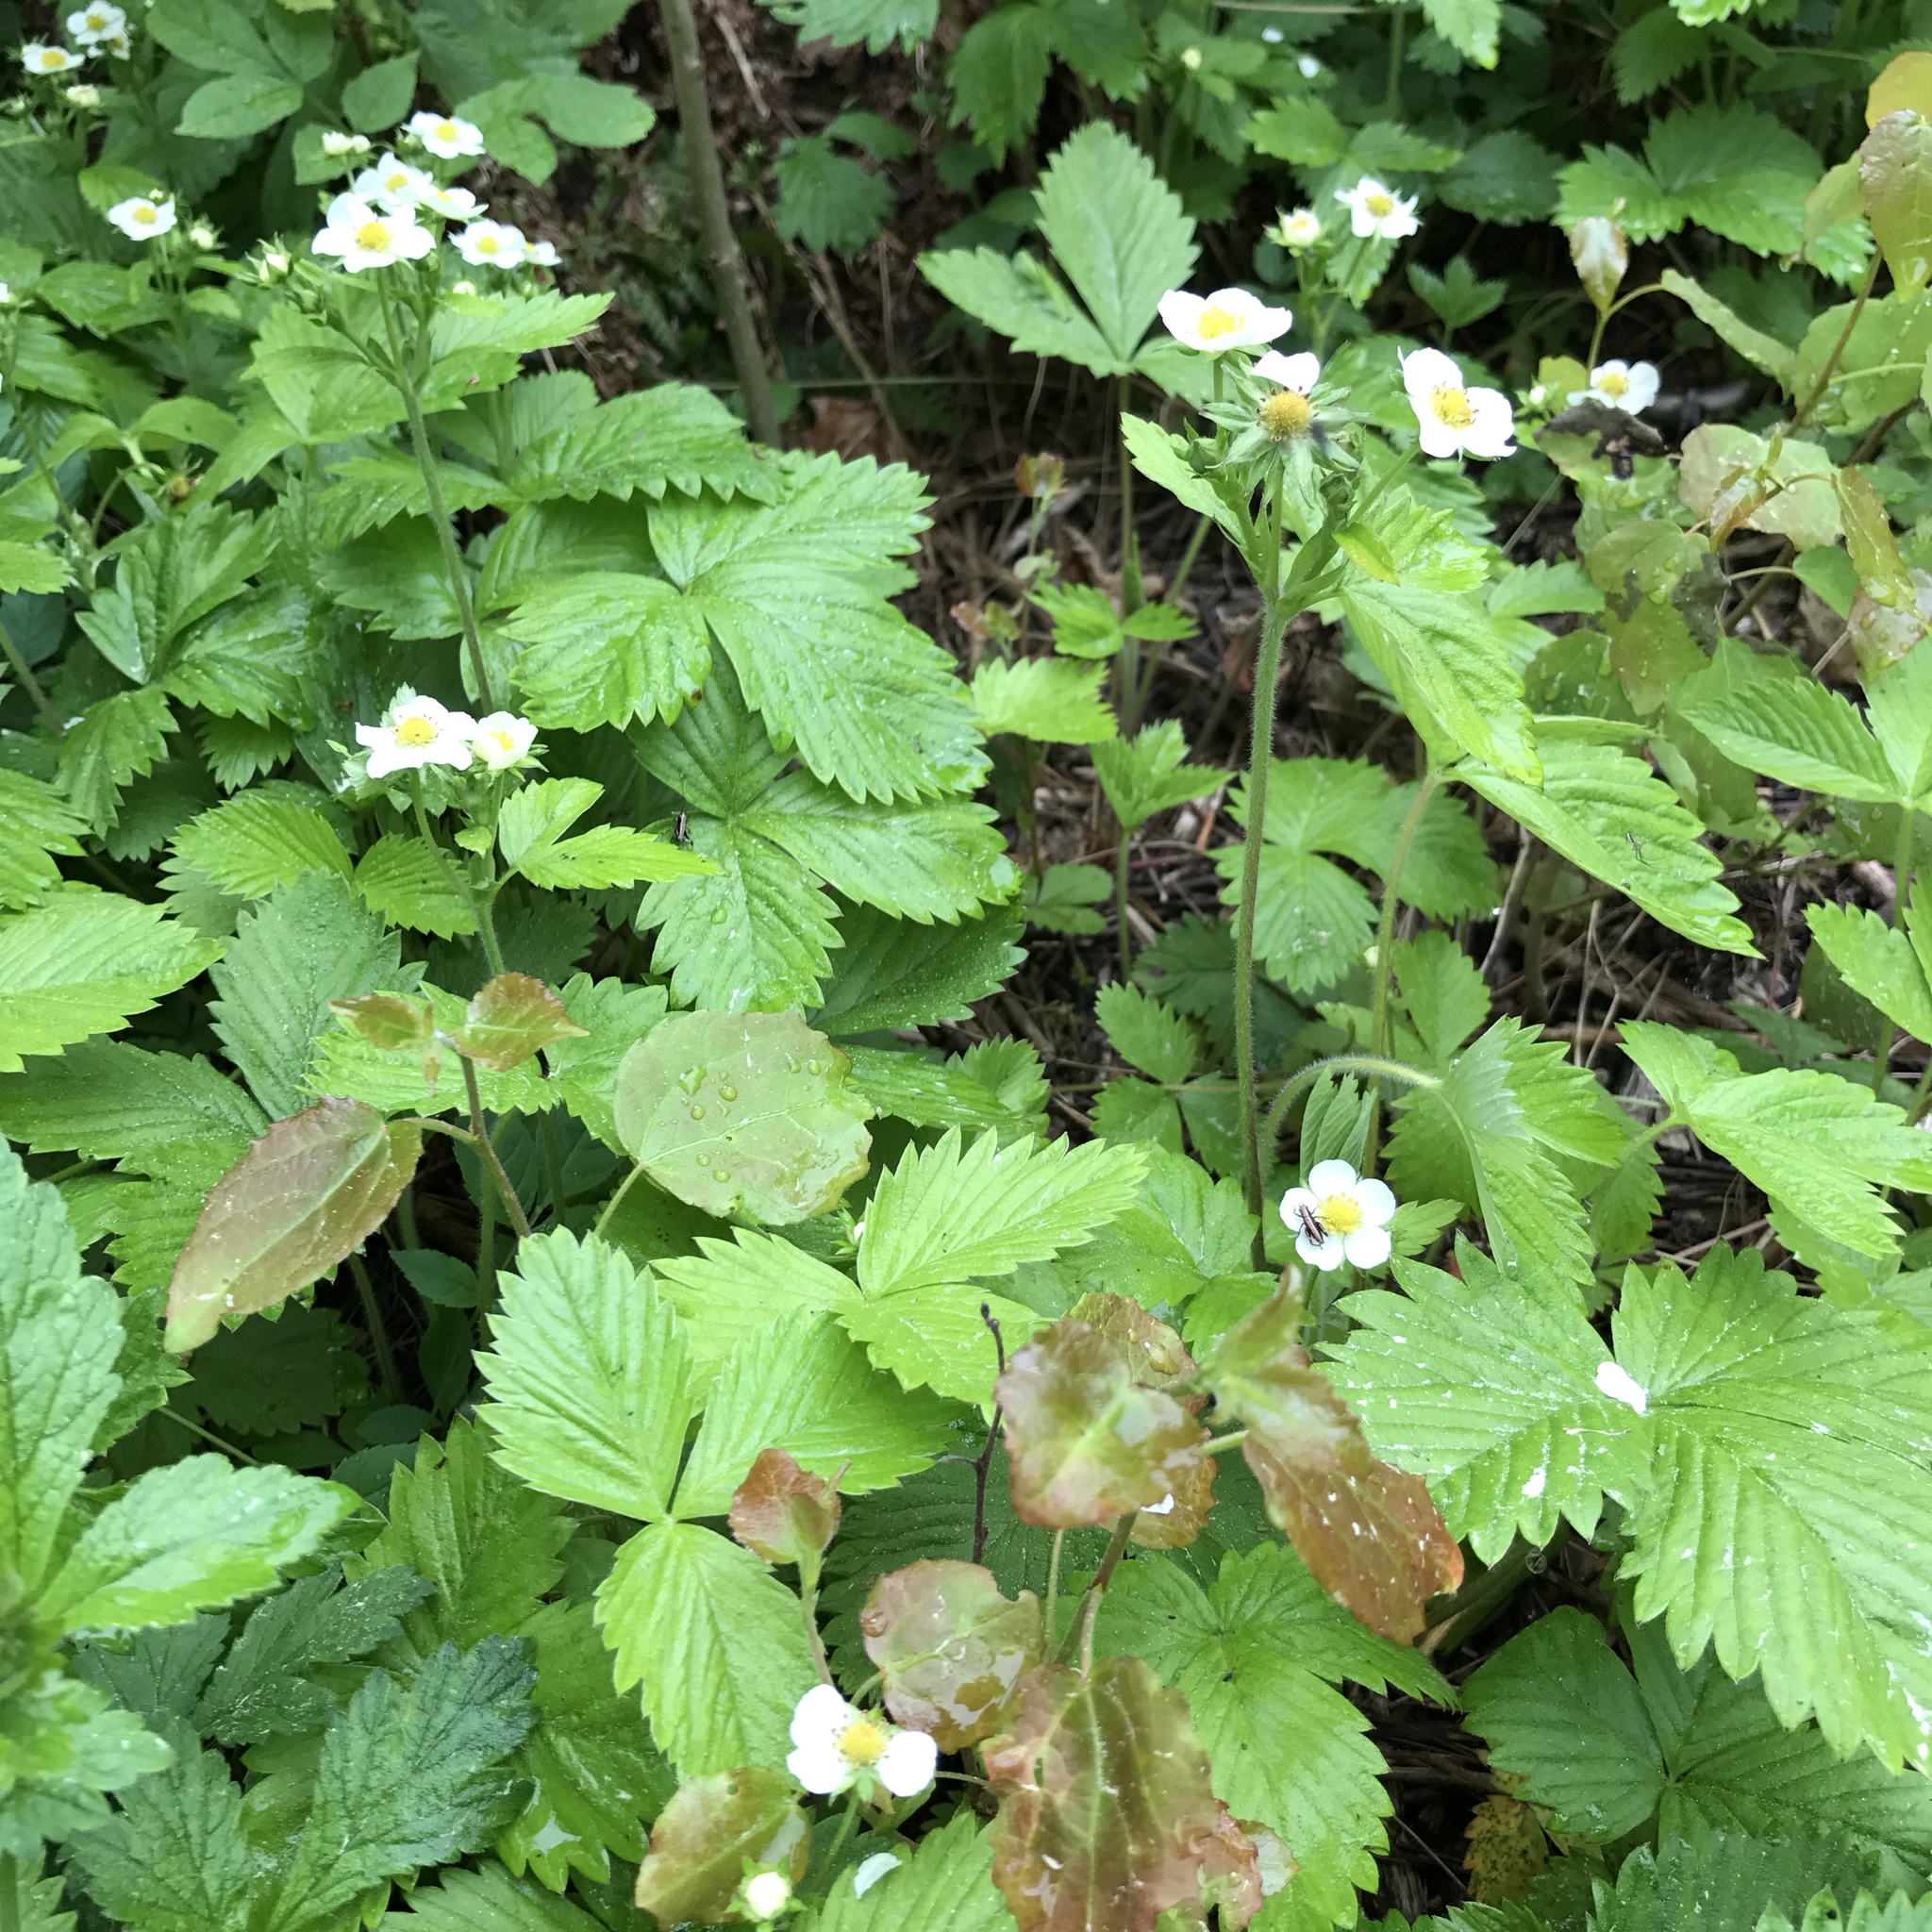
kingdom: Plantae
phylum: Tracheophyta
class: Magnoliopsida
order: Rosales
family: Rosaceae
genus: Fragaria
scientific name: Fragaria vesca
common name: Wild strawberry
